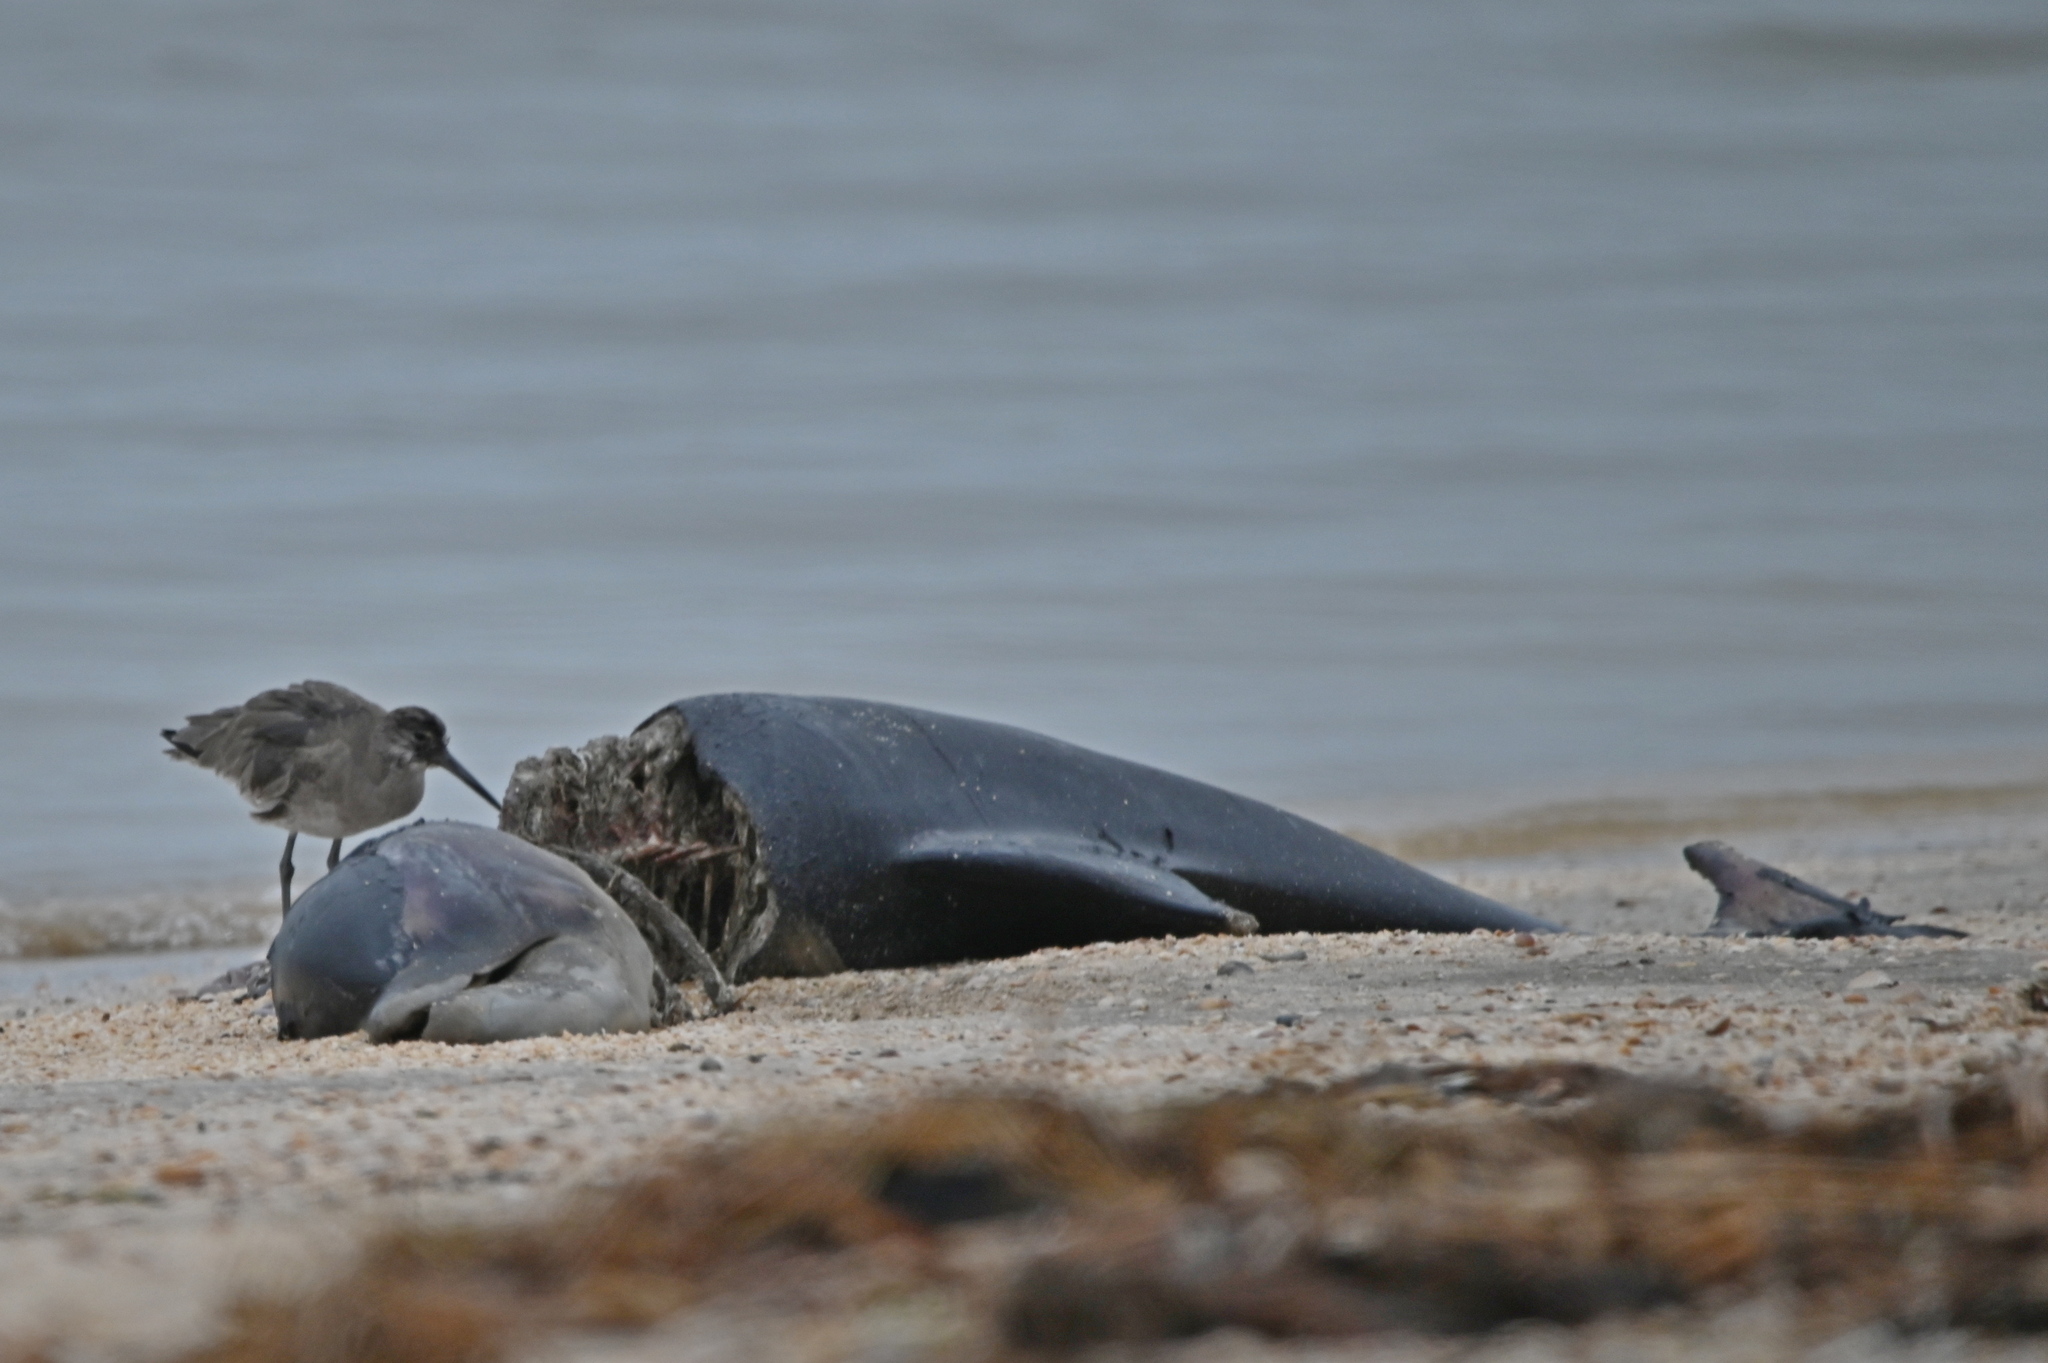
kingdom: Animalia
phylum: Chordata
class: Aves
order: Charadriiformes
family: Scolopacidae
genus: Tringa
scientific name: Tringa semipalmata
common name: Willet
